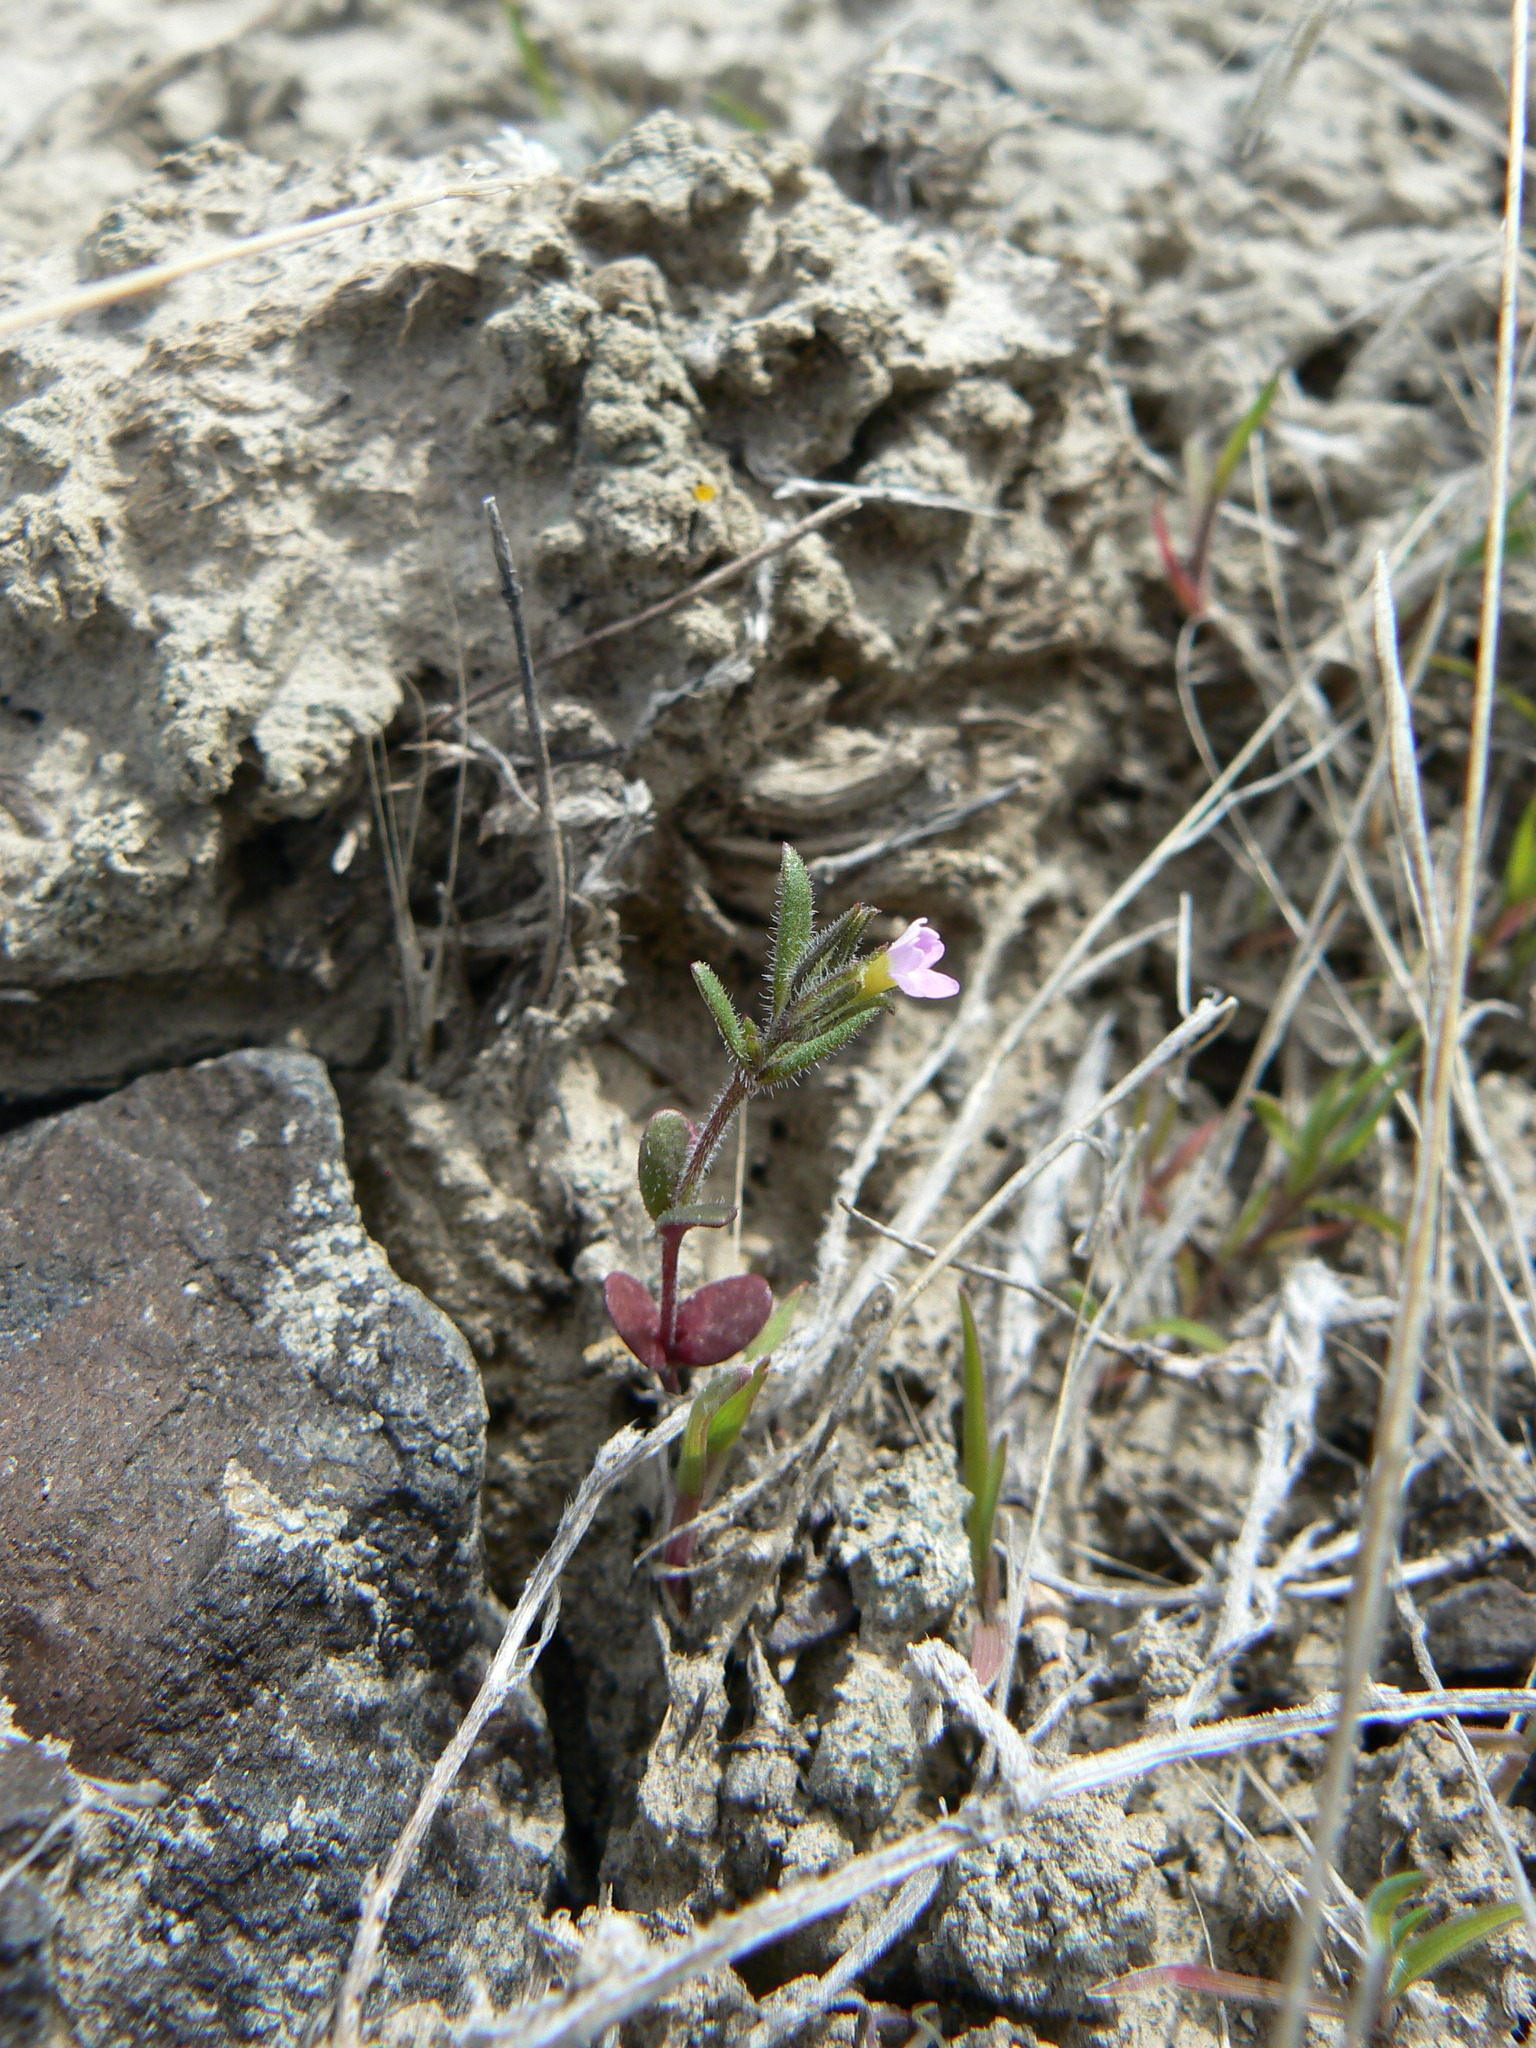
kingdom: Plantae
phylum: Tracheophyta
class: Magnoliopsida
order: Ericales
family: Polemoniaceae
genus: Phlox
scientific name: Phlox gracilis
